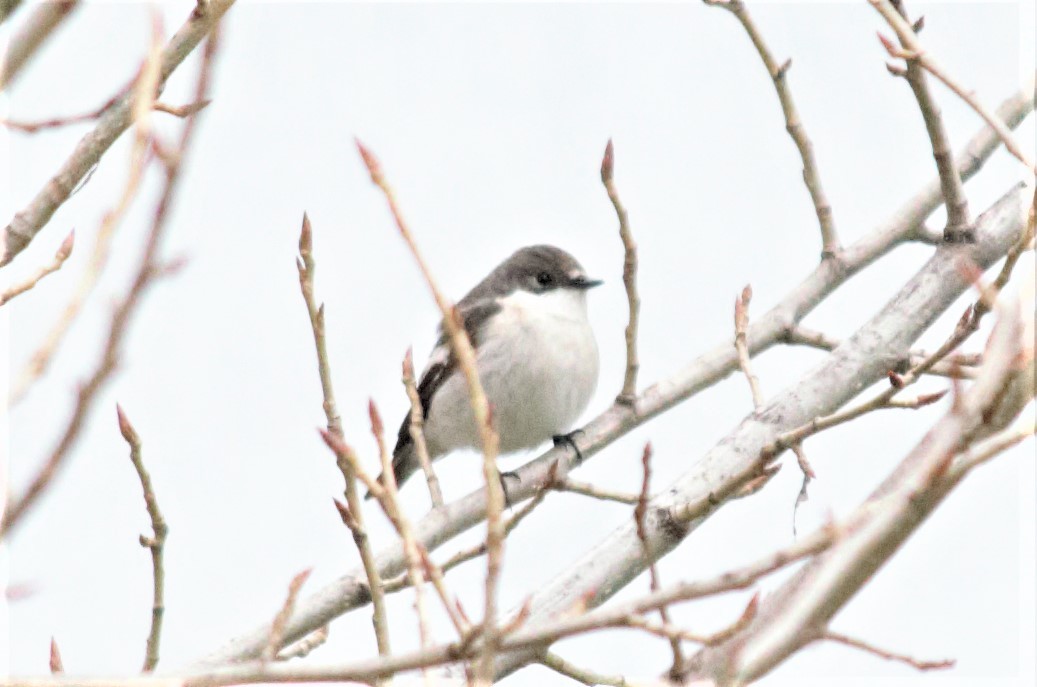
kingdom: Animalia
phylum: Chordata
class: Aves
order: Passeriformes
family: Muscicapidae
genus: Ficedula
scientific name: Ficedula hypoleuca
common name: European pied flycatcher
